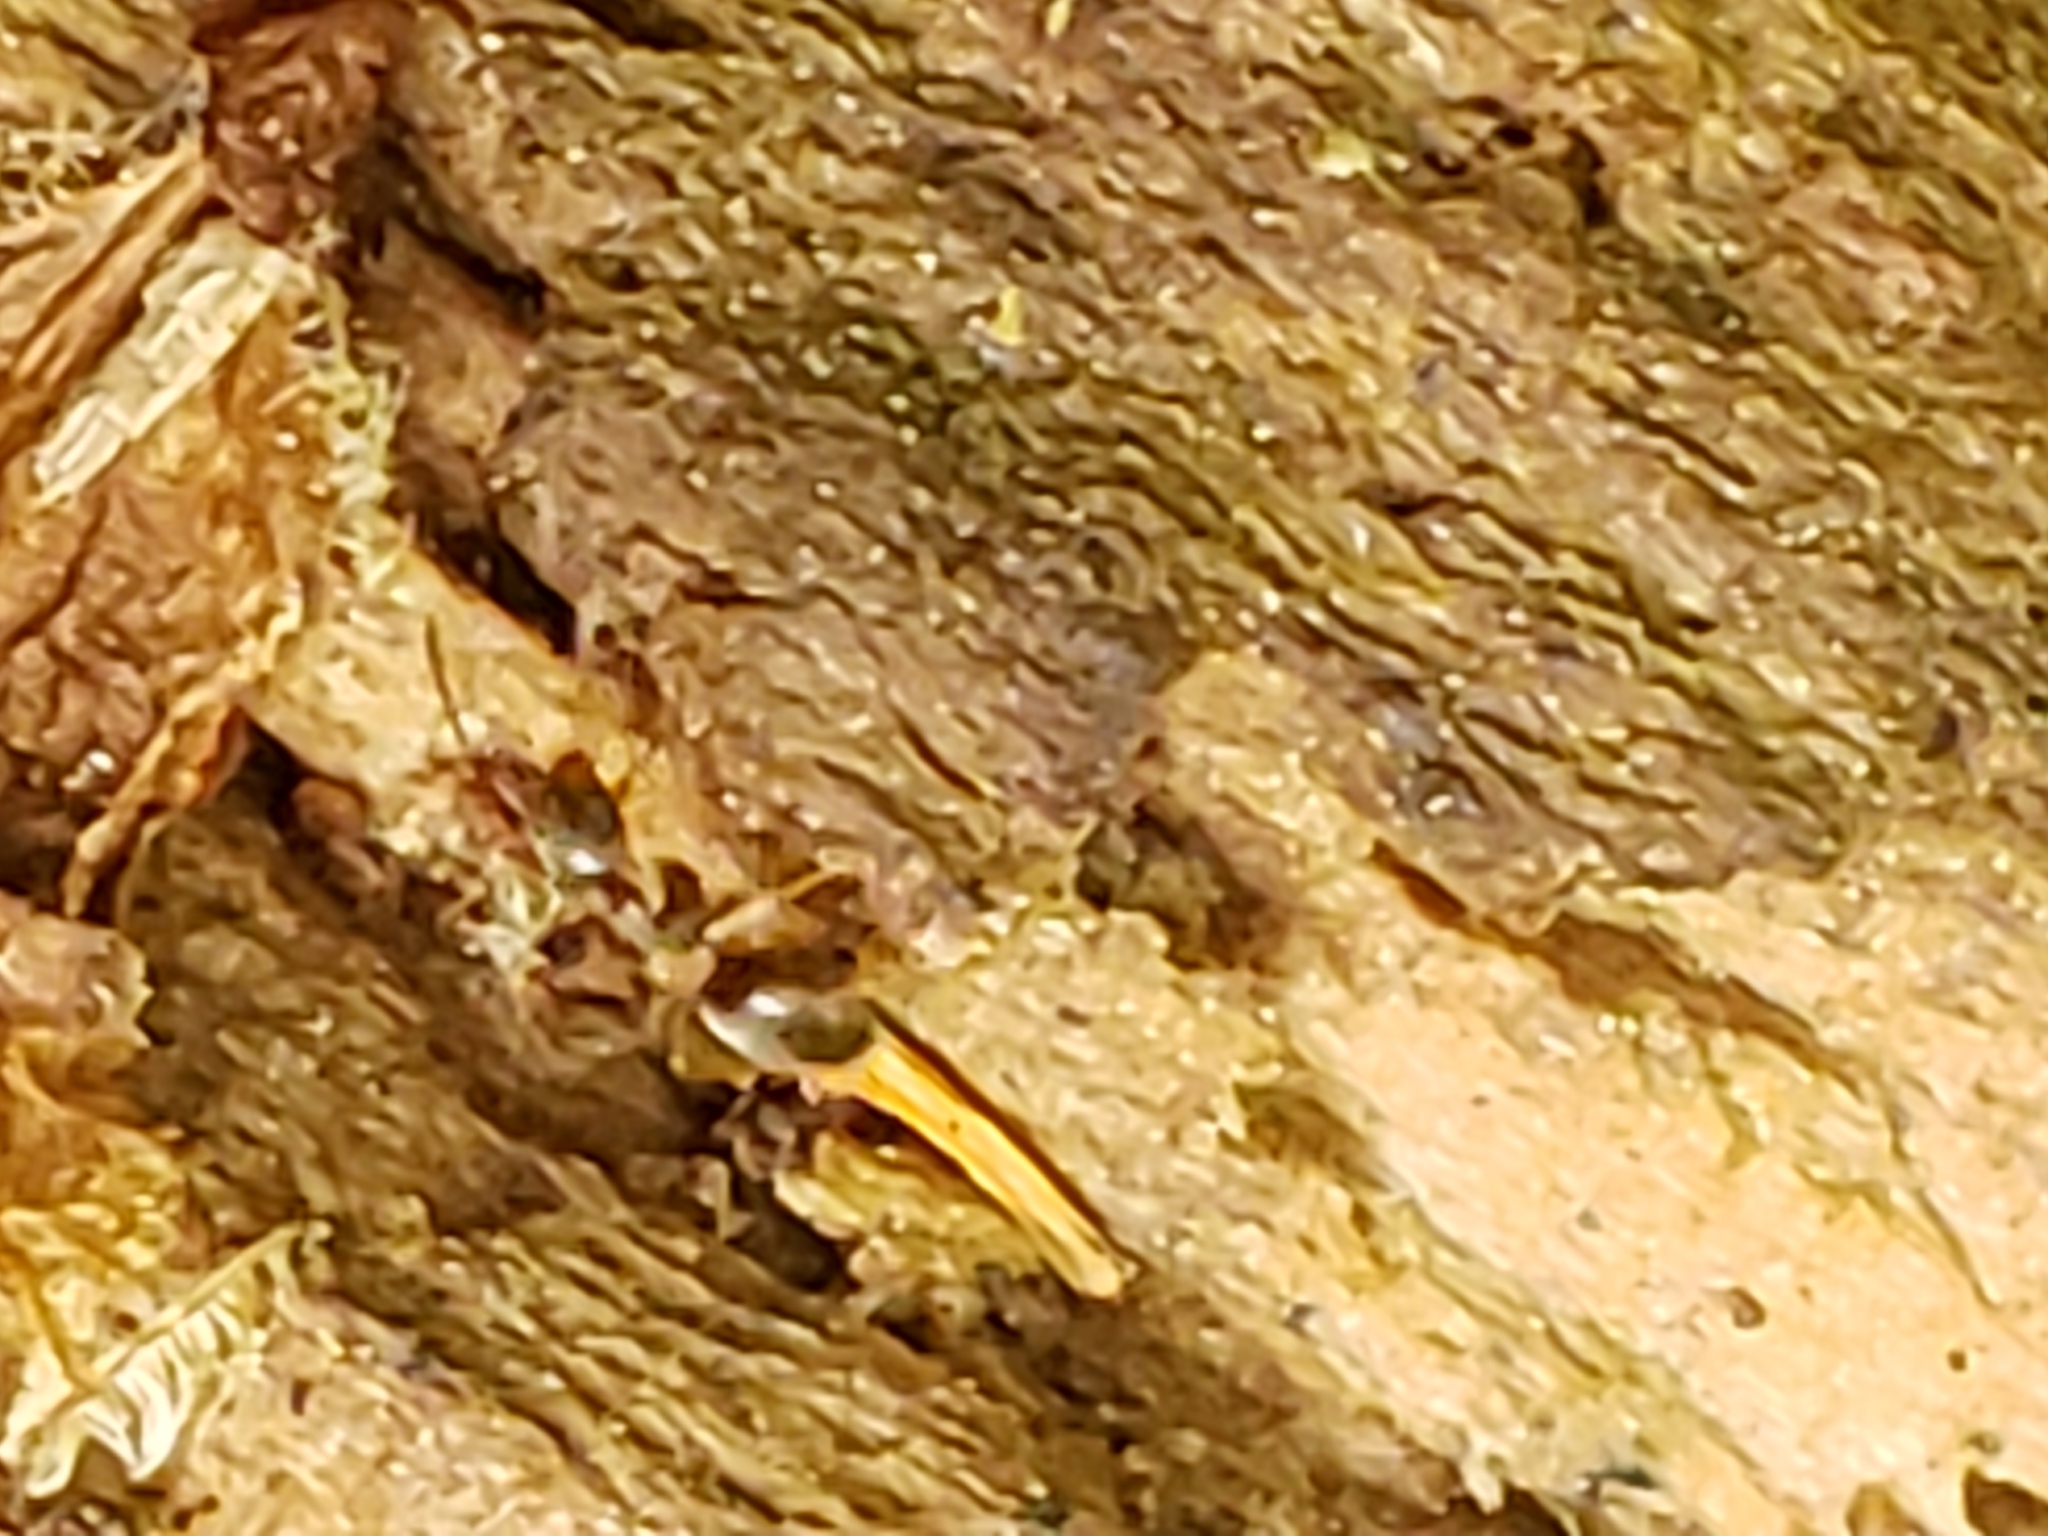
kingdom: Animalia
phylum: Arthropoda
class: Insecta
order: Hymenoptera
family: Formicidae
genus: Lasius
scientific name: Lasius americanus
